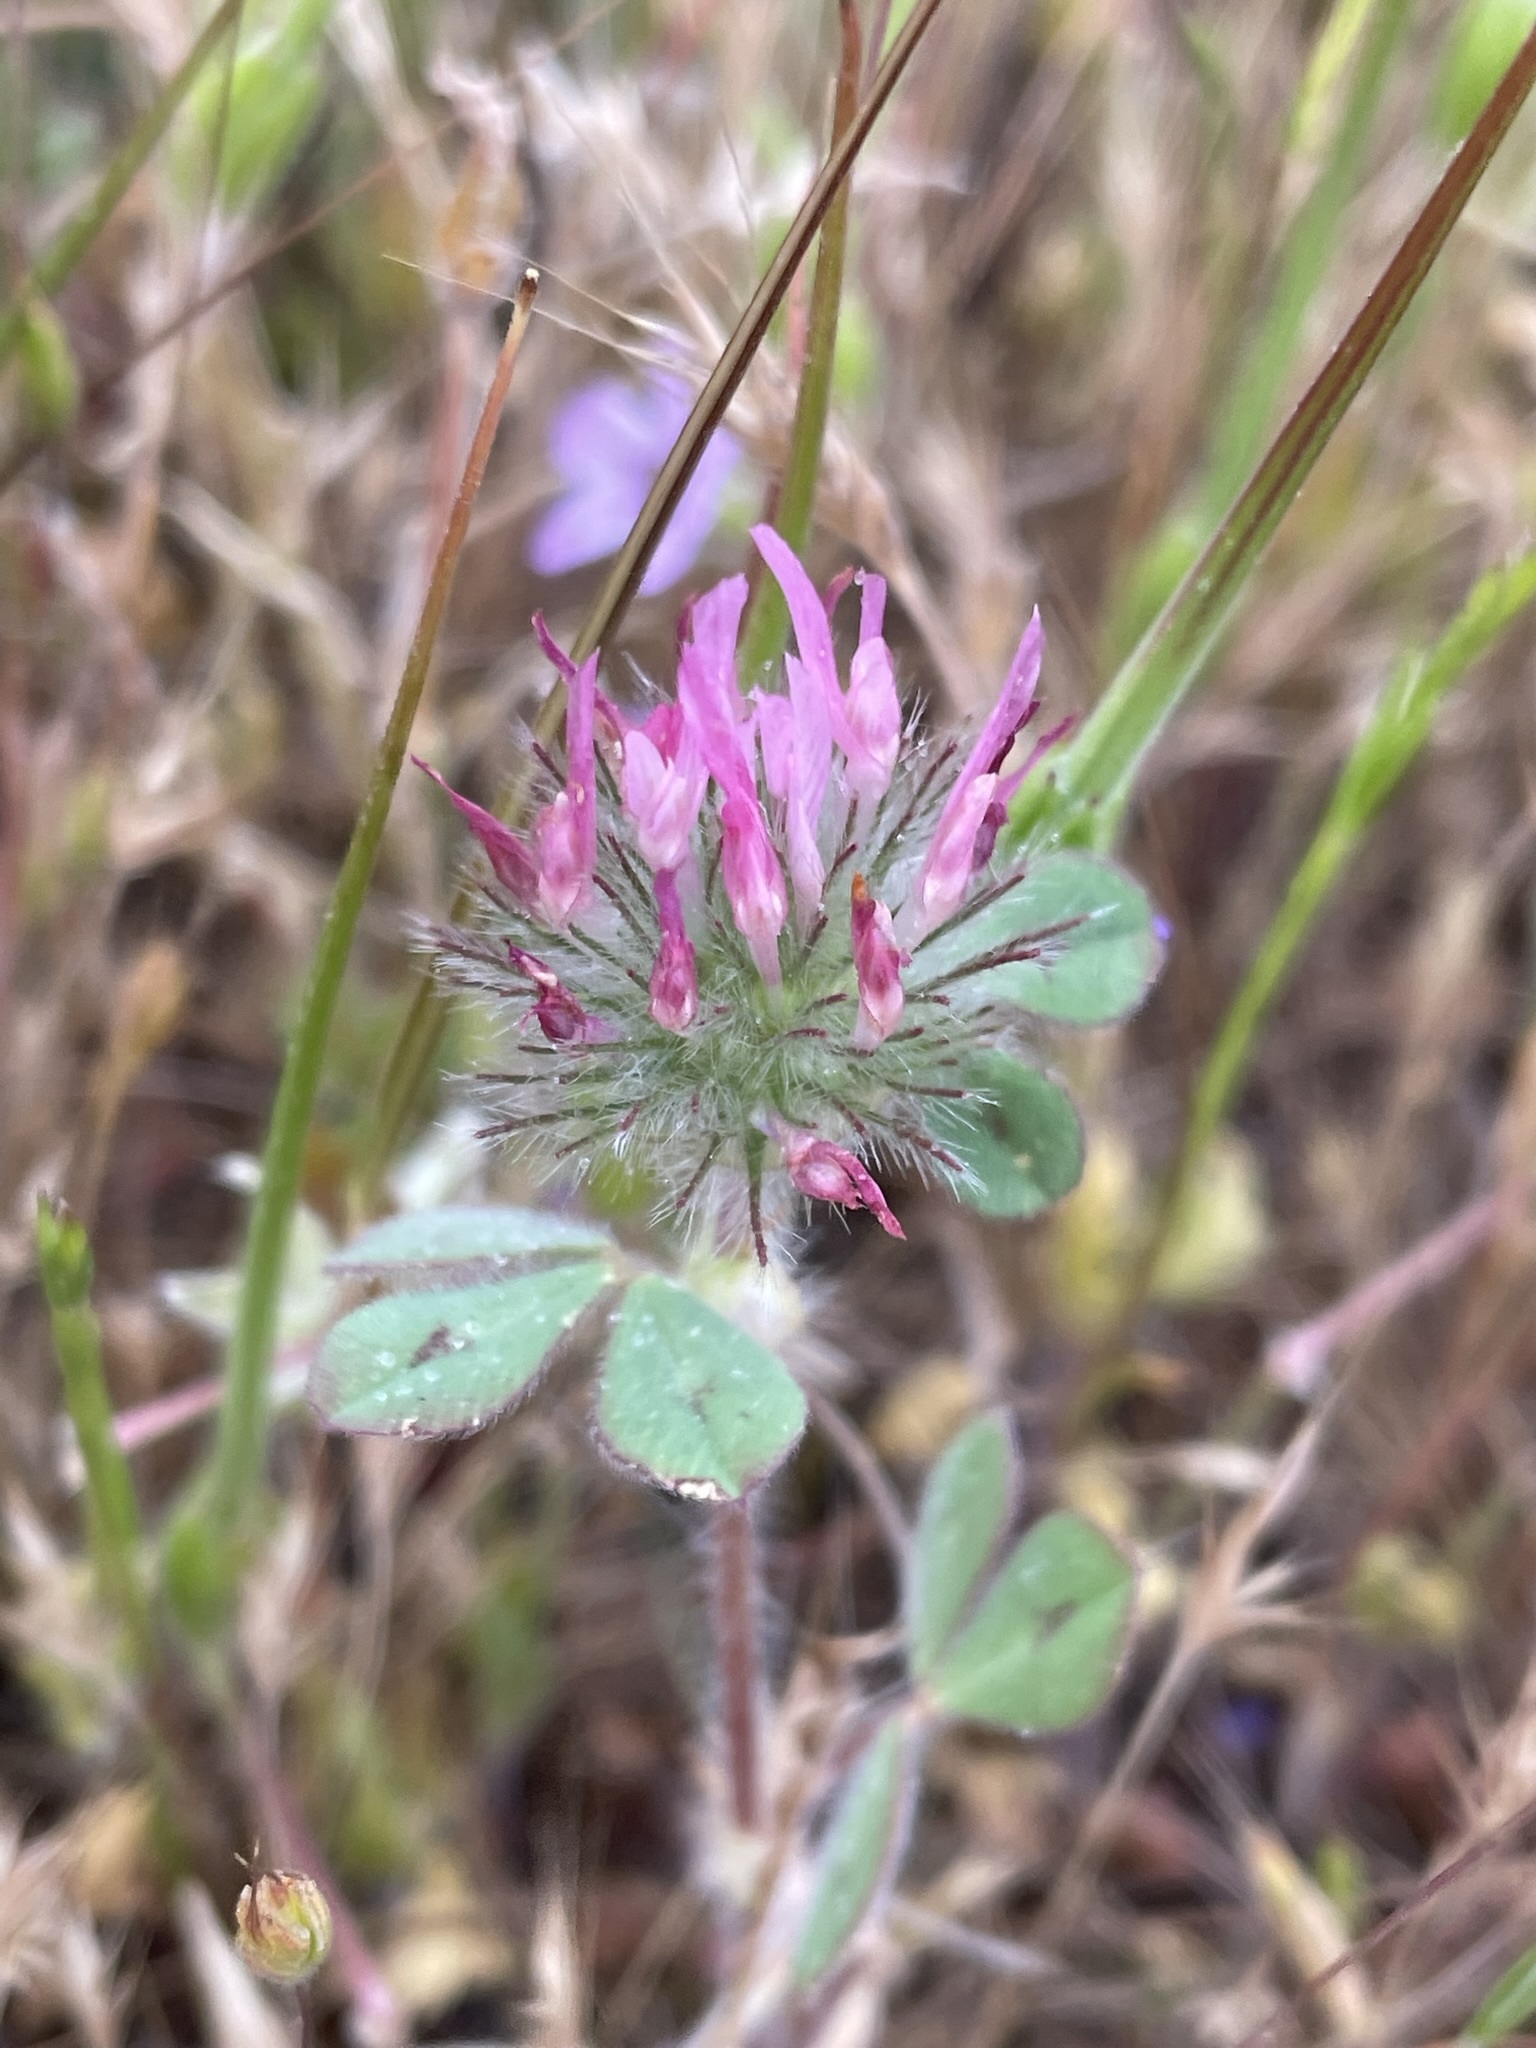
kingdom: Plantae
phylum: Tracheophyta
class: Magnoliopsida
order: Fabales
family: Fabaceae
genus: Trifolium
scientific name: Trifolium hirtum
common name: Rose clover
